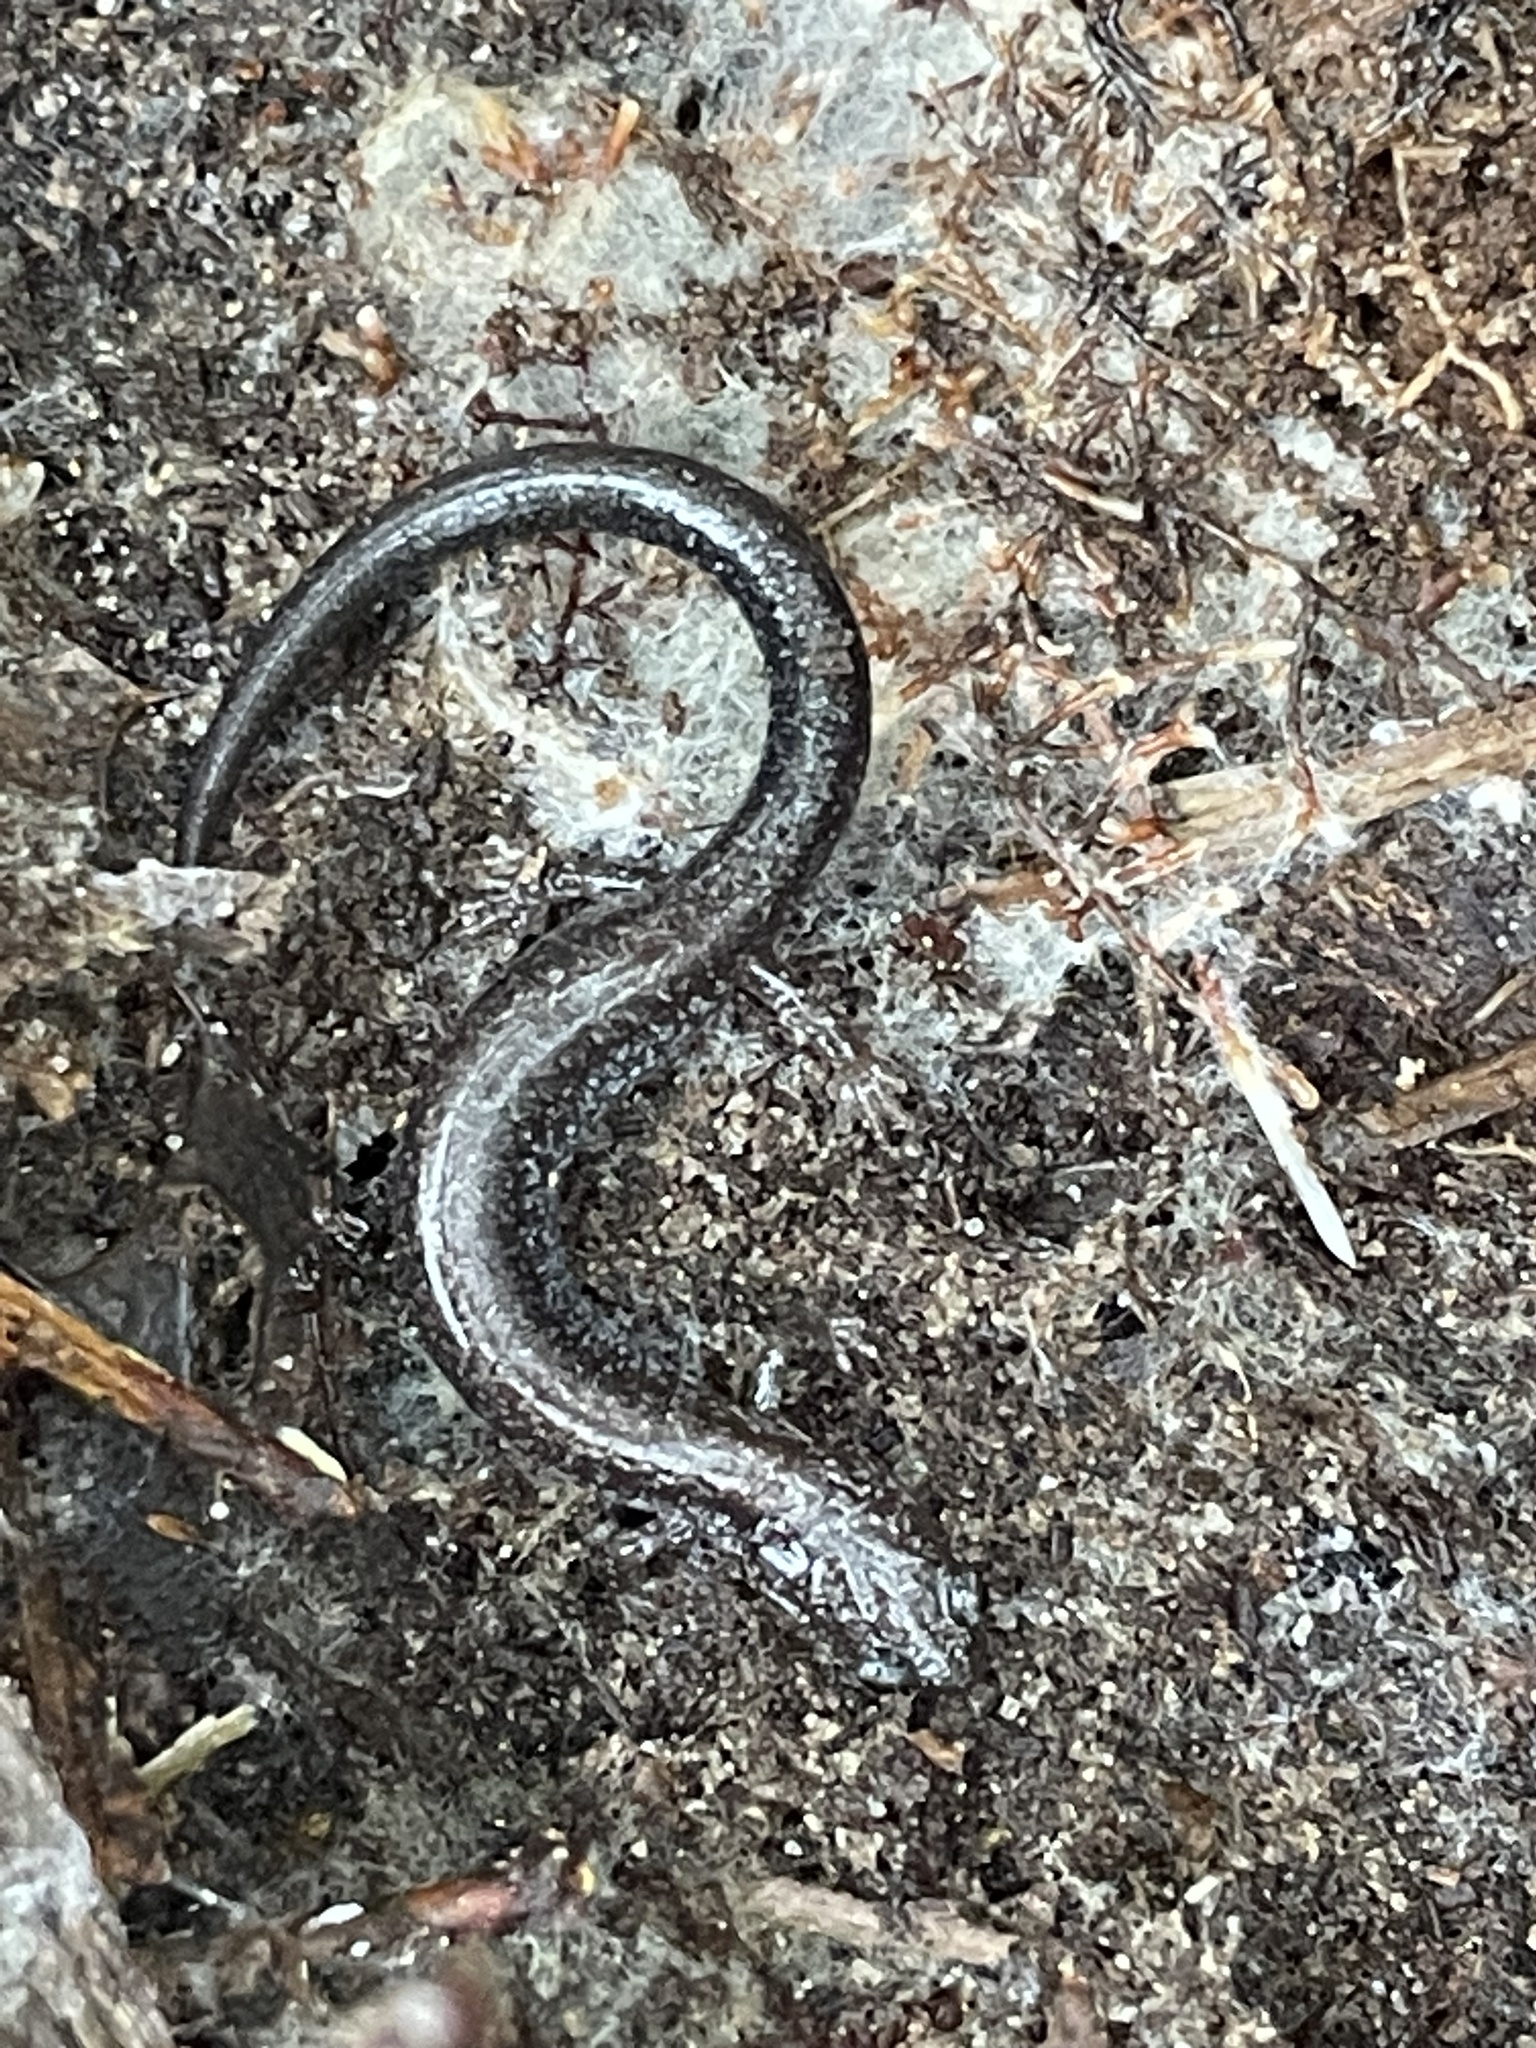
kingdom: Animalia
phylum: Chordata
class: Amphibia
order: Caudata
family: Plethodontidae
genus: Plethodon
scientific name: Plethodon cinereus
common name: Redback salamander
